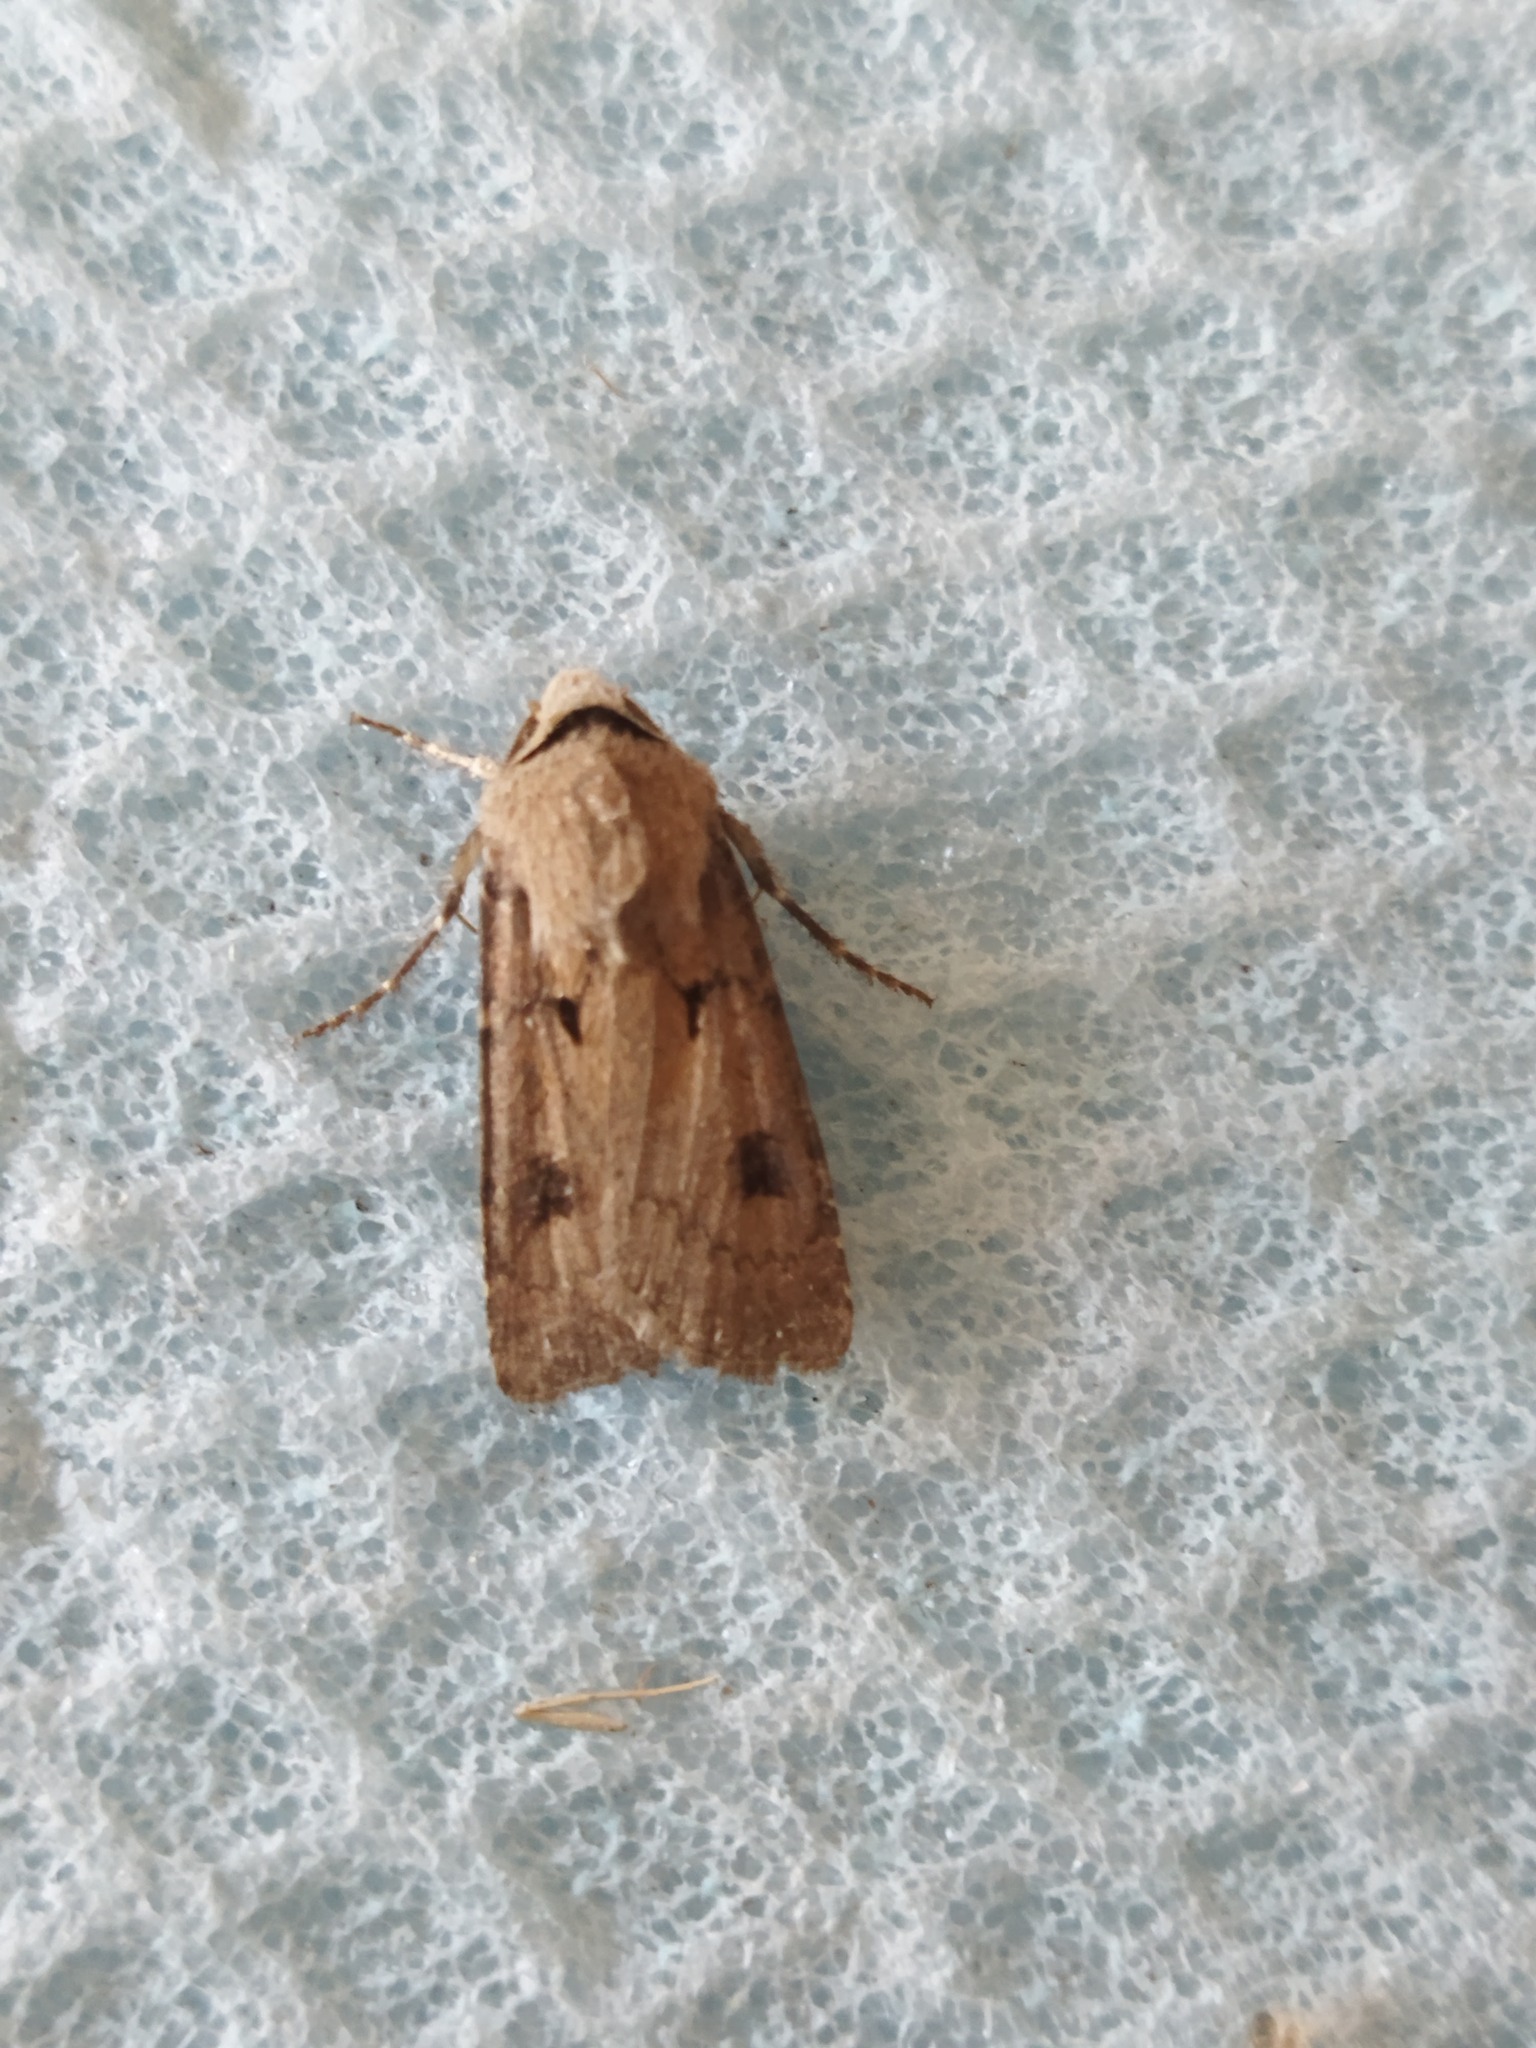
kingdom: Animalia
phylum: Arthropoda
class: Insecta
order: Lepidoptera
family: Noctuidae
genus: Agrotis
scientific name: Agrotis exclamationis
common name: Heart and dart
